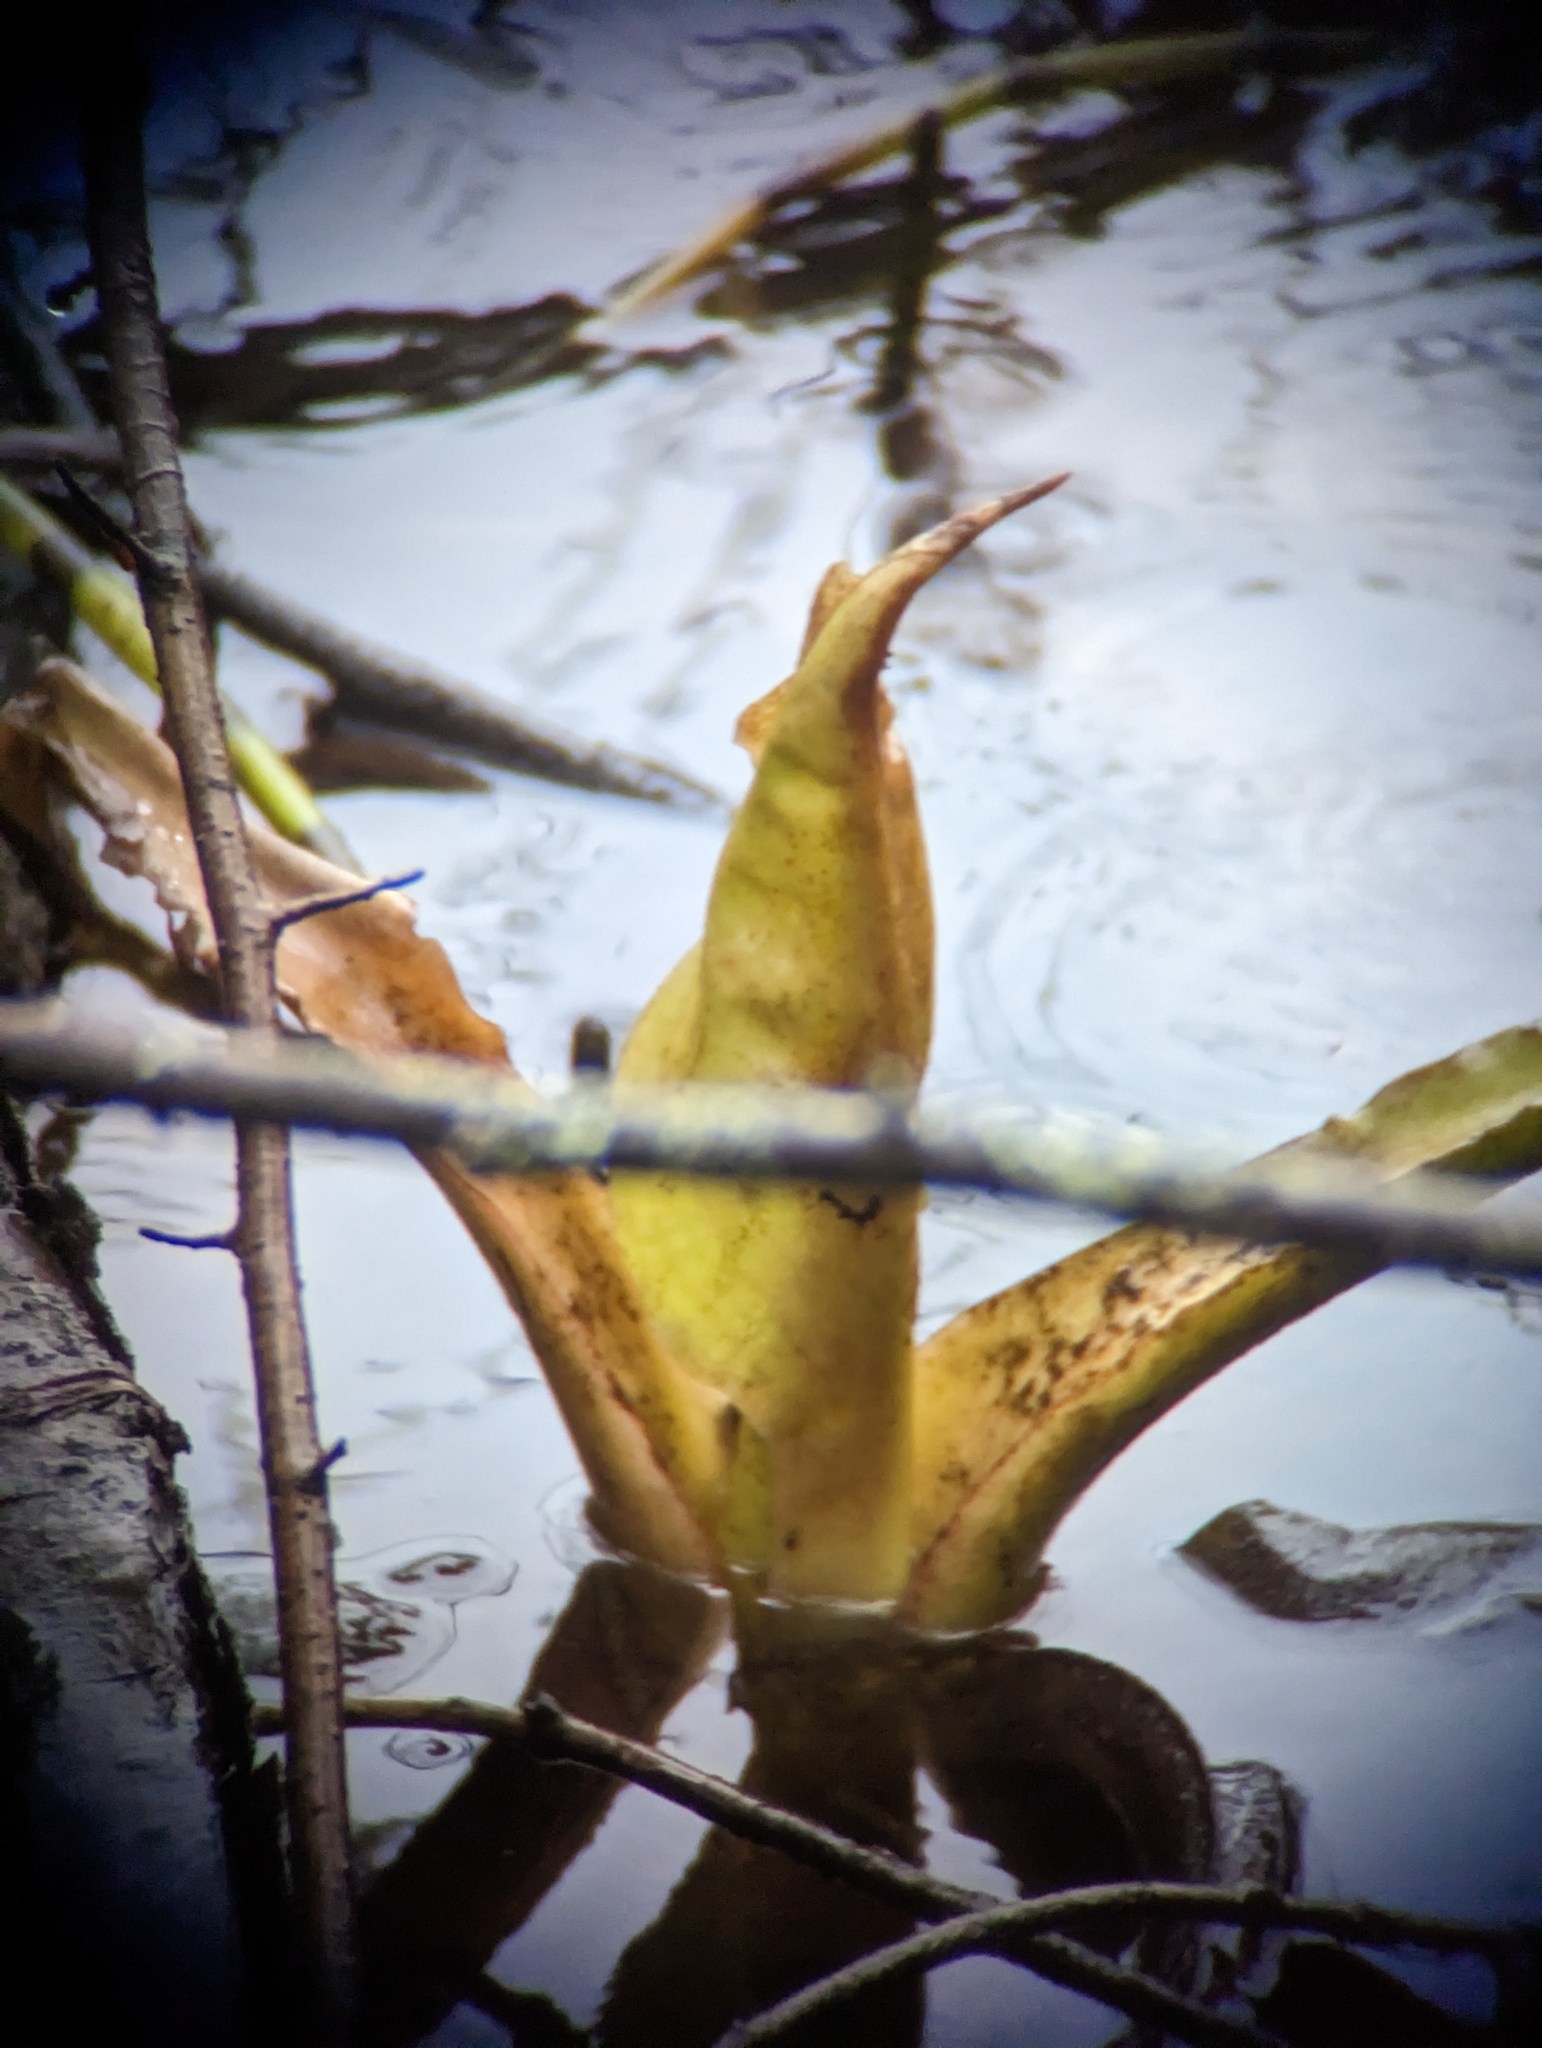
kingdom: Plantae
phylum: Tracheophyta
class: Liliopsida
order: Alismatales
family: Araceae
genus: Lysichiton
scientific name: Lysichiton americanus
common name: American skunk cabbage
